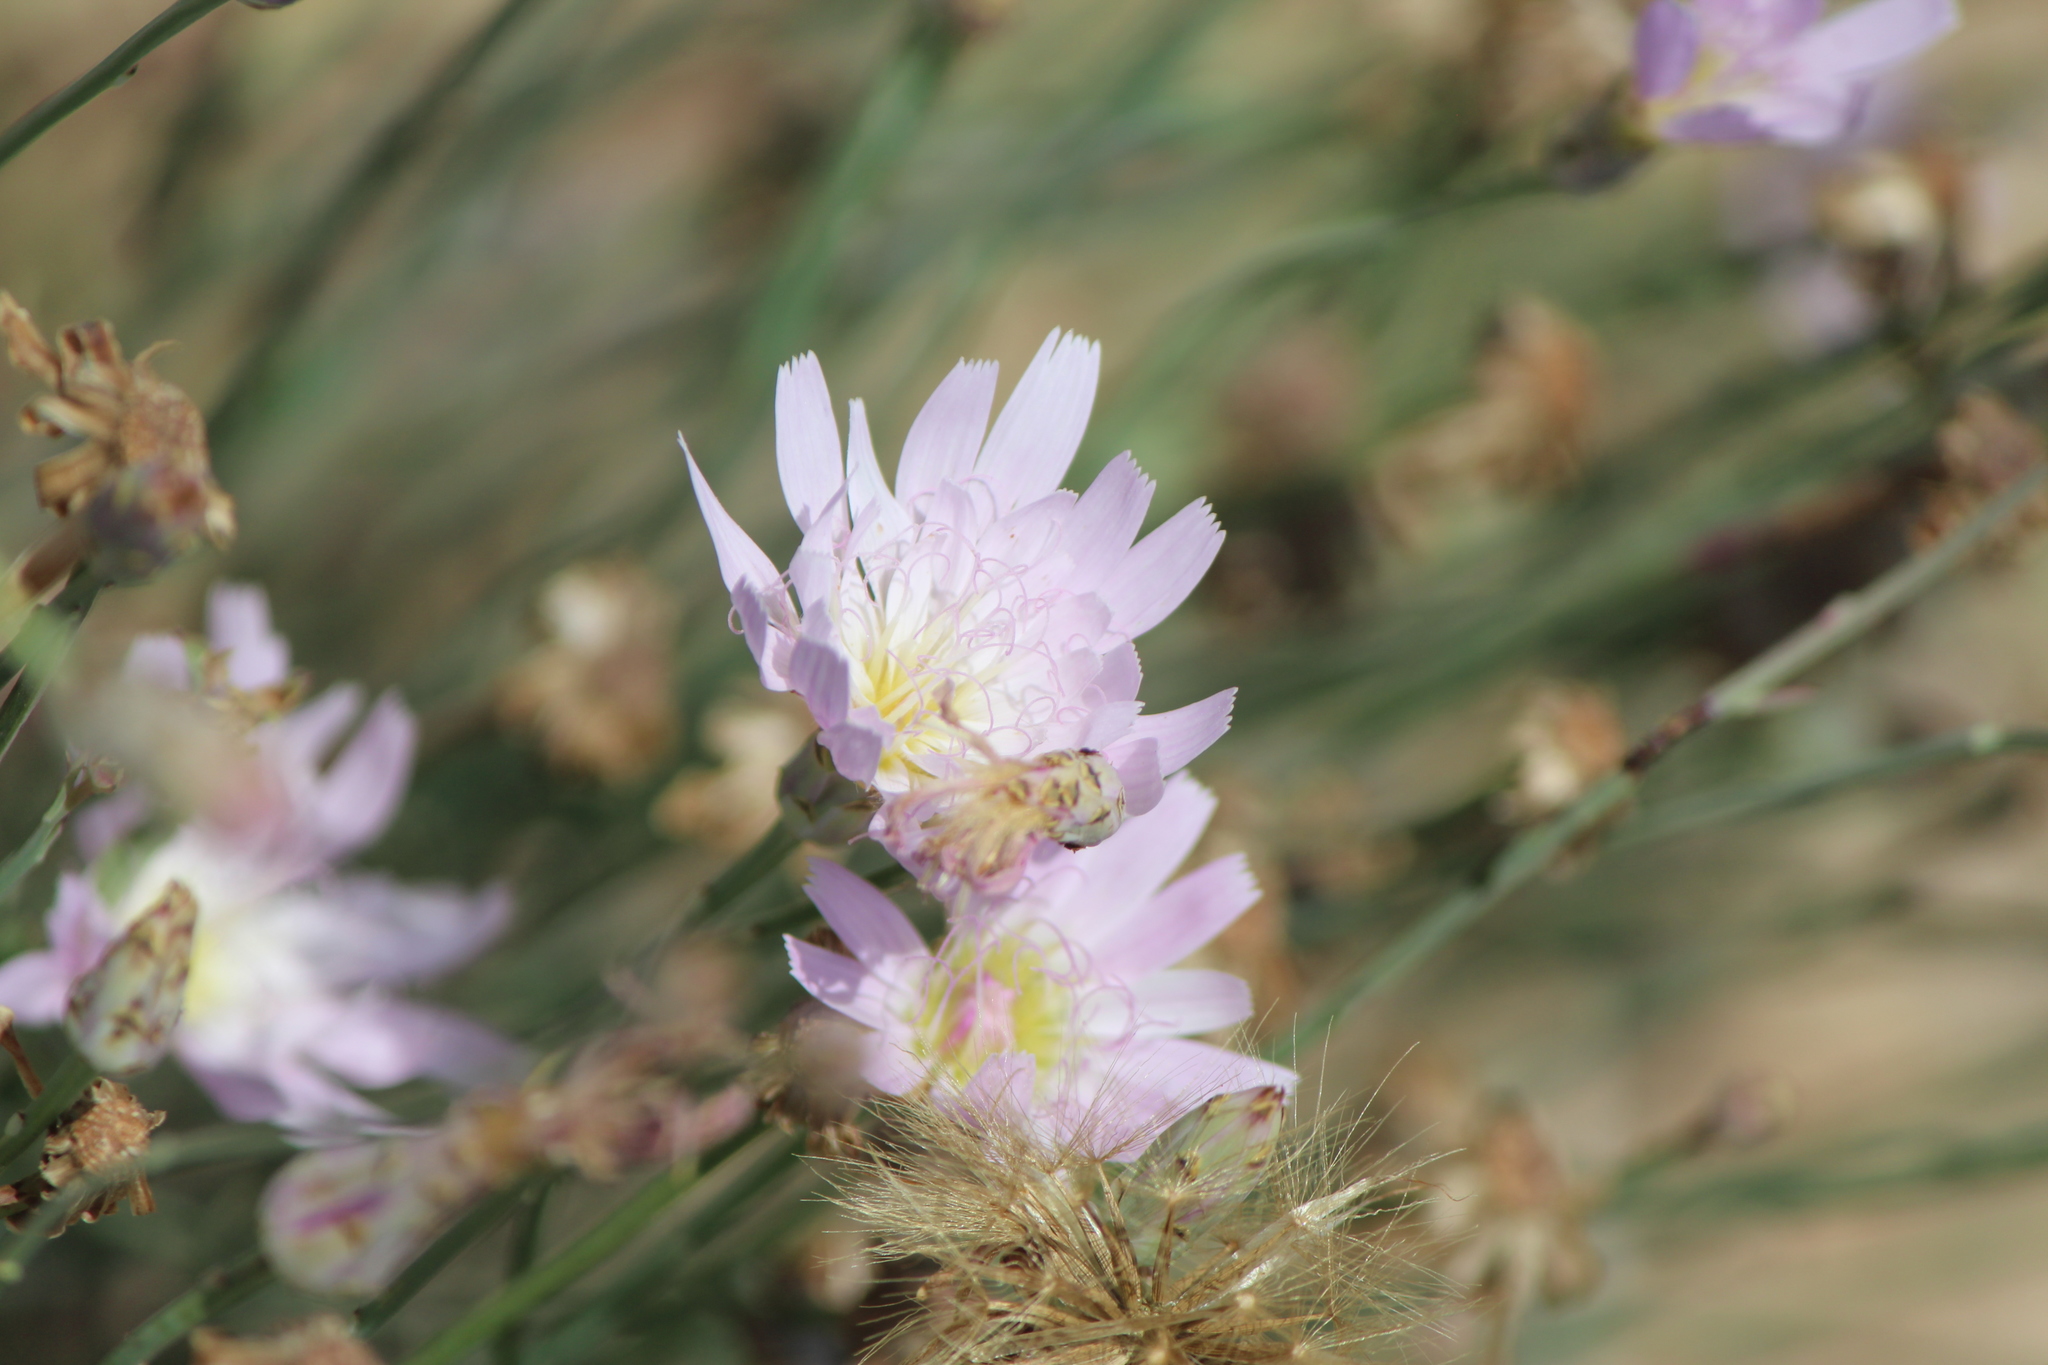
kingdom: Plantae
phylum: Tracheophyta
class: Magnoliopsida
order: Asterales
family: Asteraceae
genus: Pinaropappus
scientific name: Pinaropappus roseus
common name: Rock-lettuce
